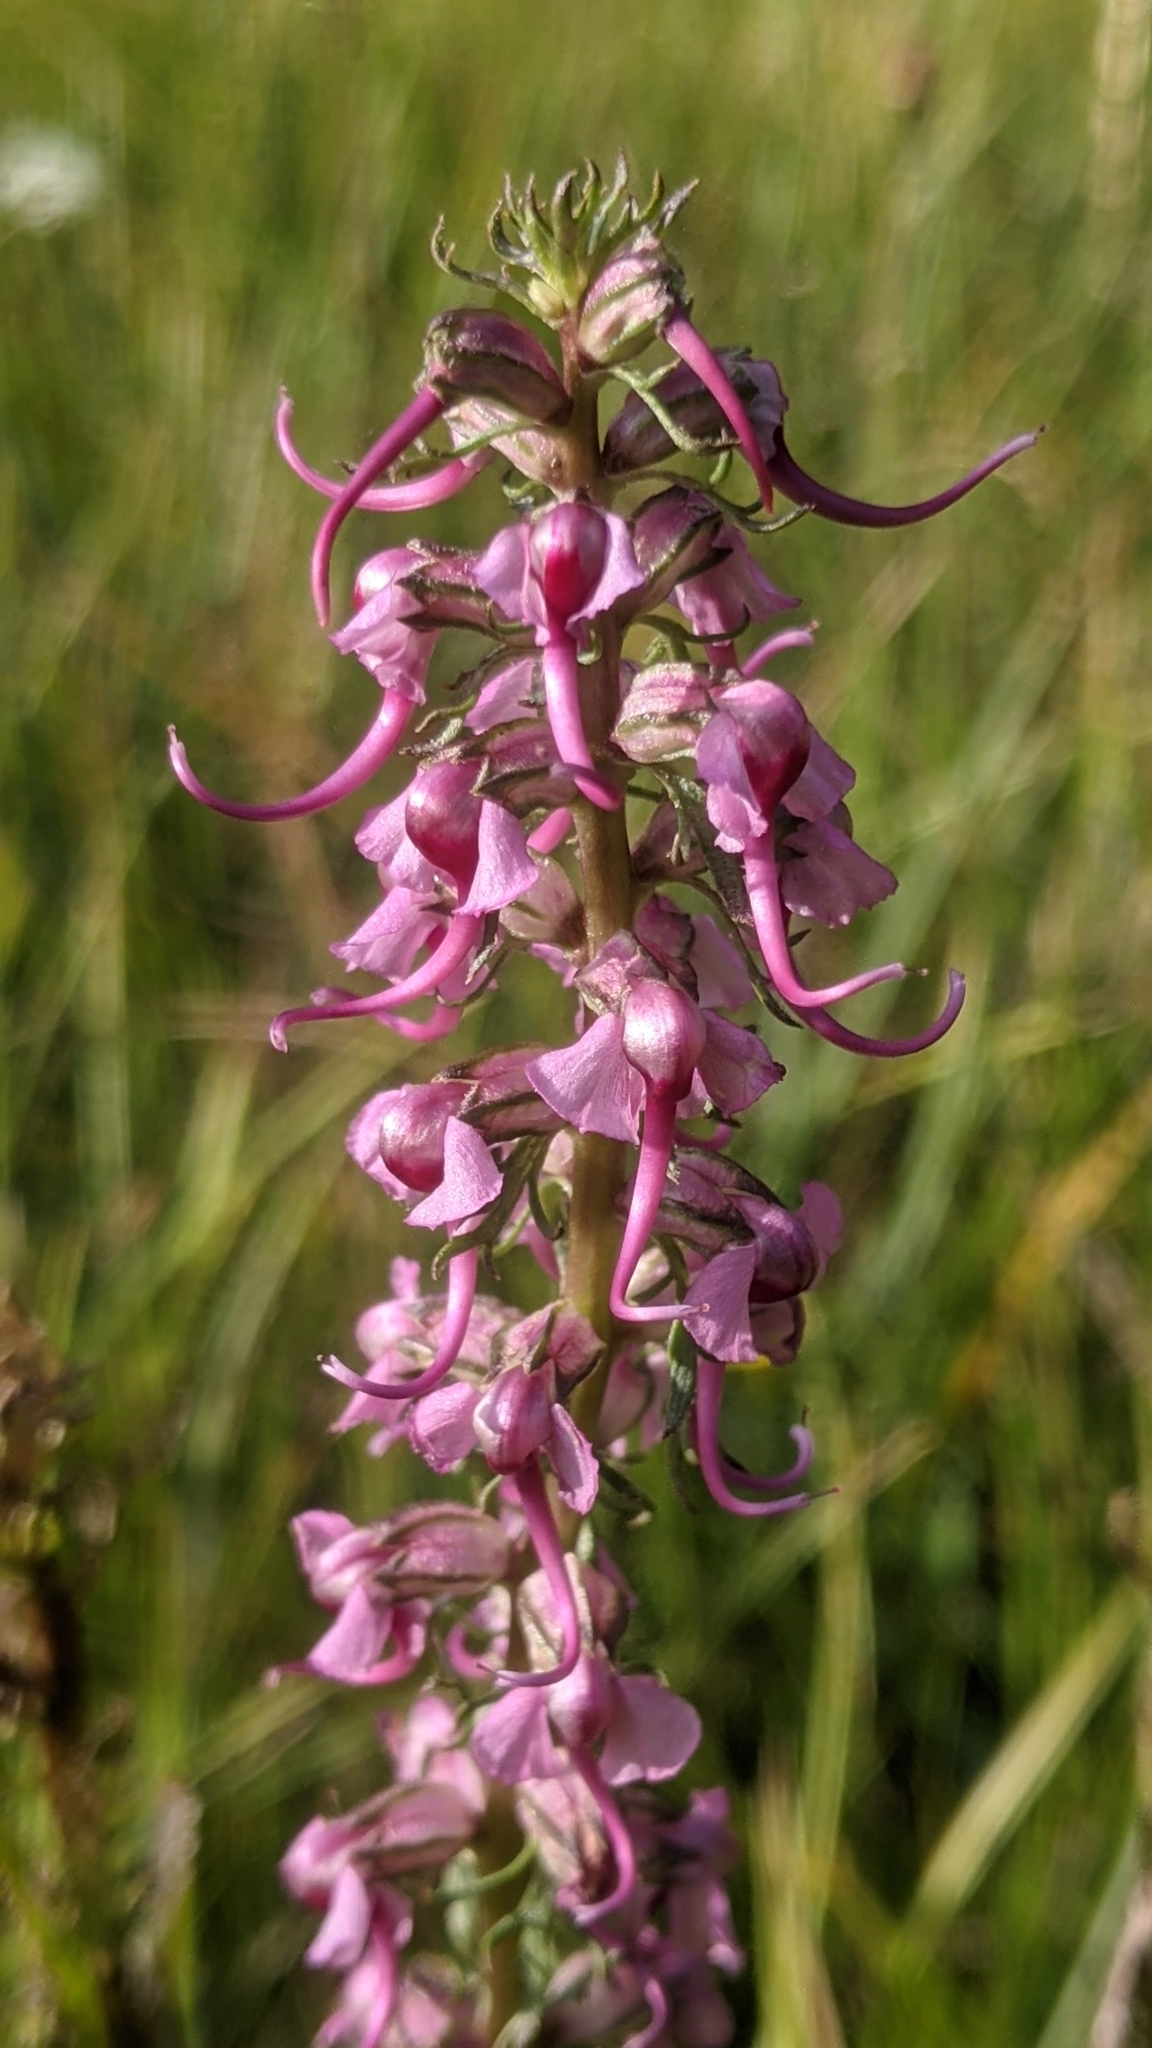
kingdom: Plantae
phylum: Tracheophyta
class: Magnoliopsida
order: Lamiales
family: Orobanchaceae
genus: Pedicularis
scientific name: Pedicularis groenlandica
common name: Elephant's-head
